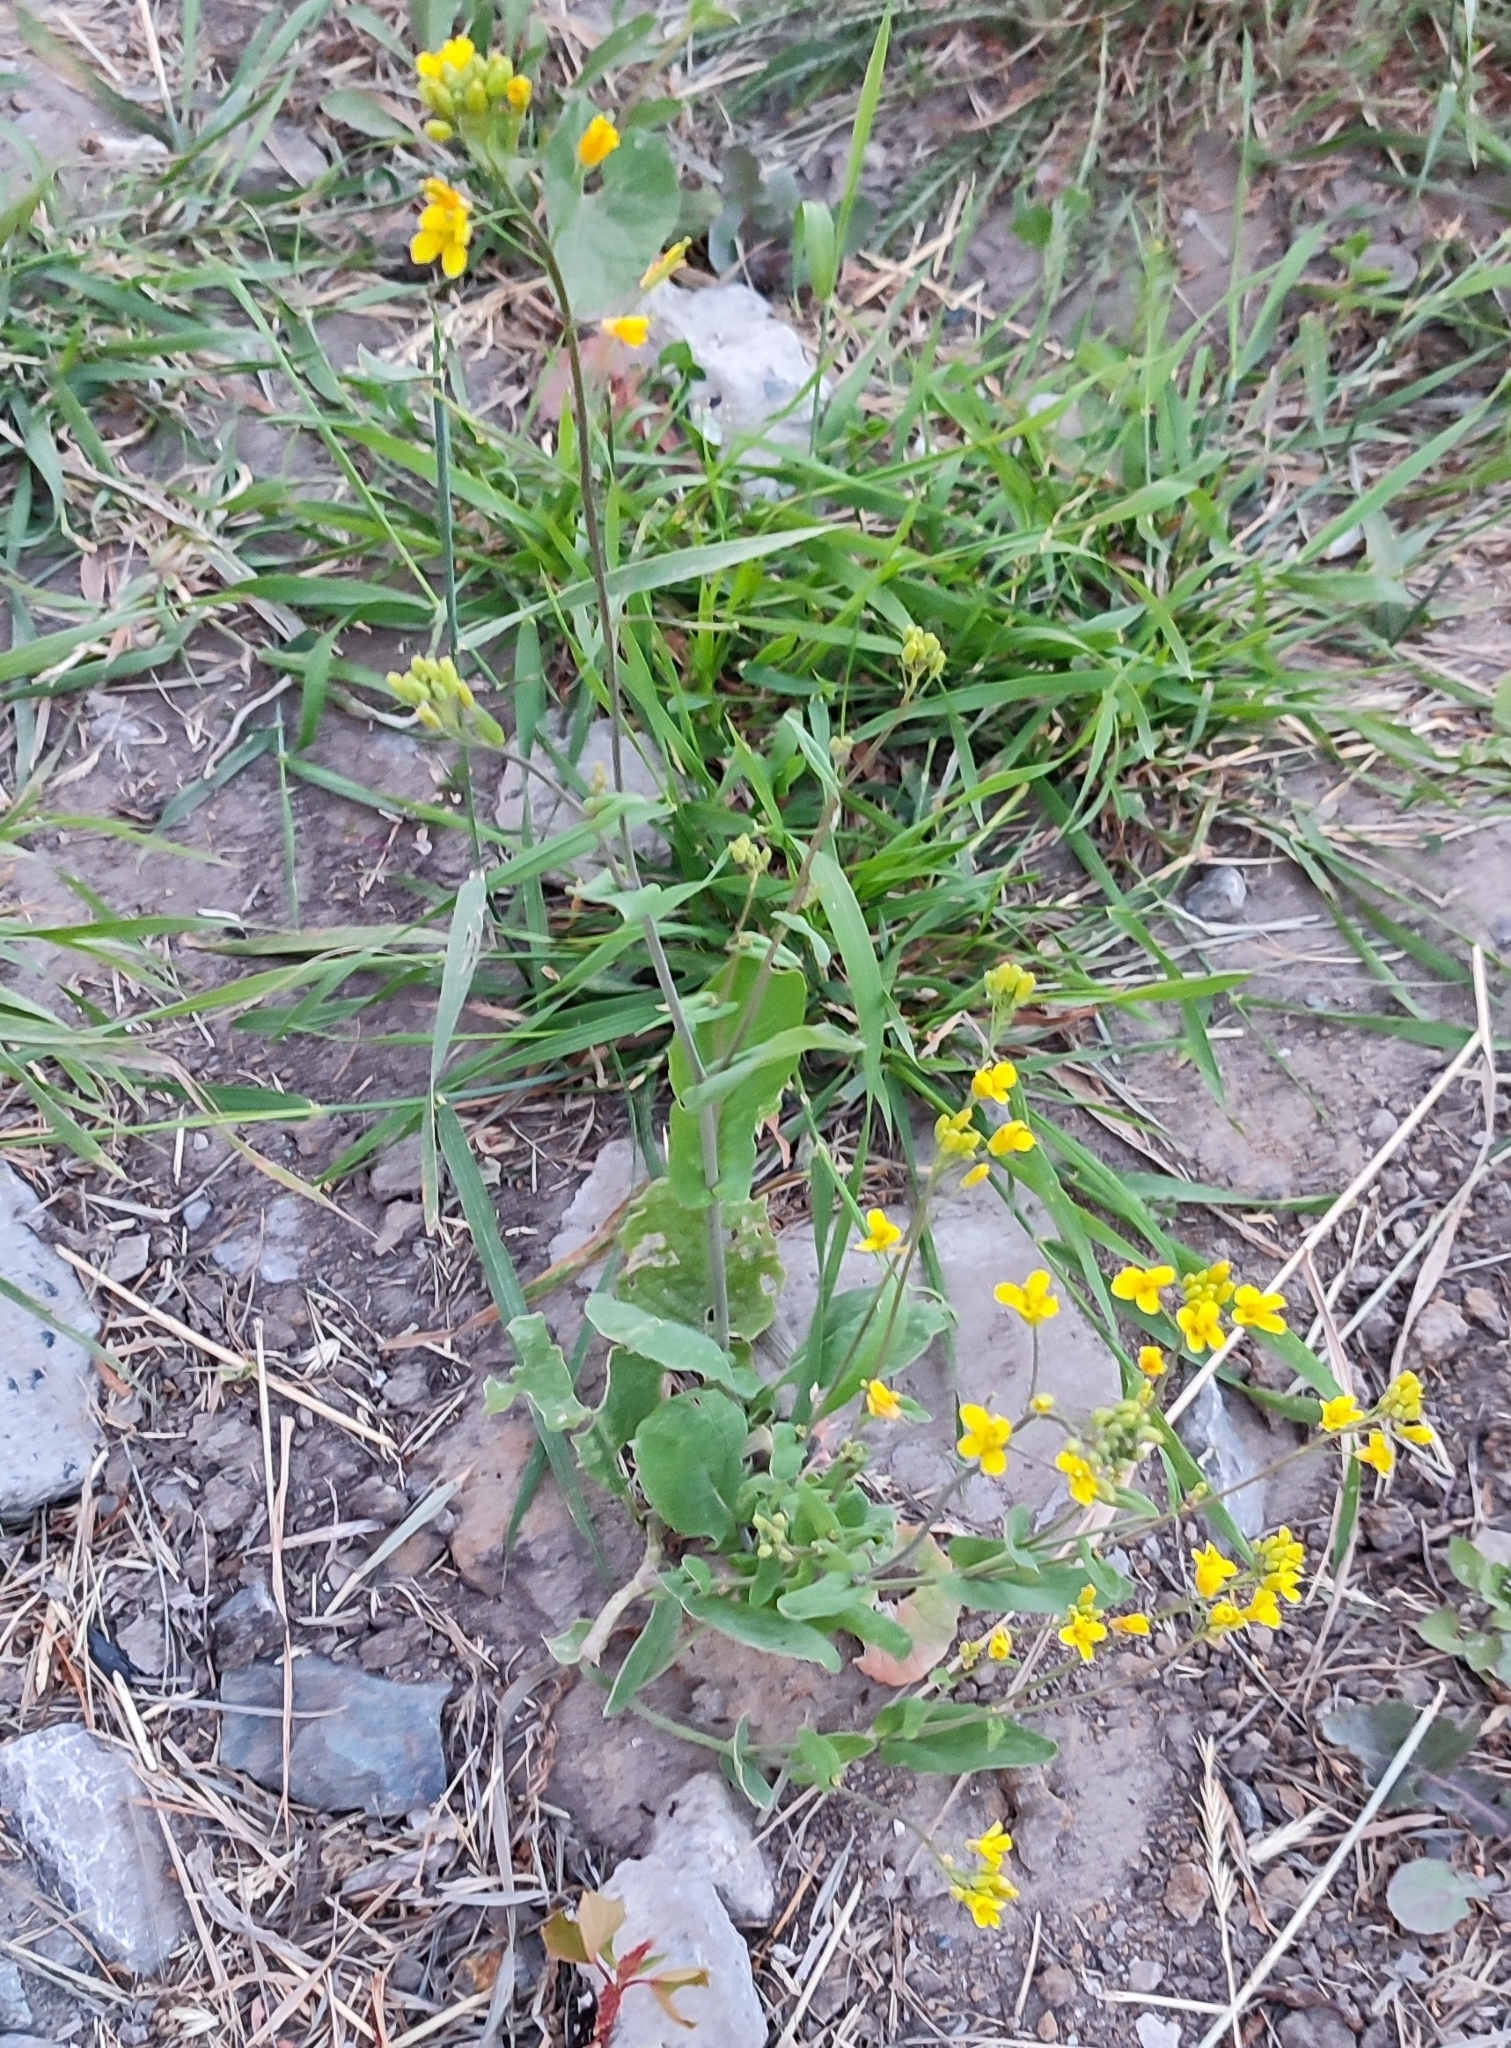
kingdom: Plantae
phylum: Tracheophyta
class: Magnoliopsida
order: Brassicales
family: Brassicaceae
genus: Brassica
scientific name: Brassica rapa
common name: Field mustard
